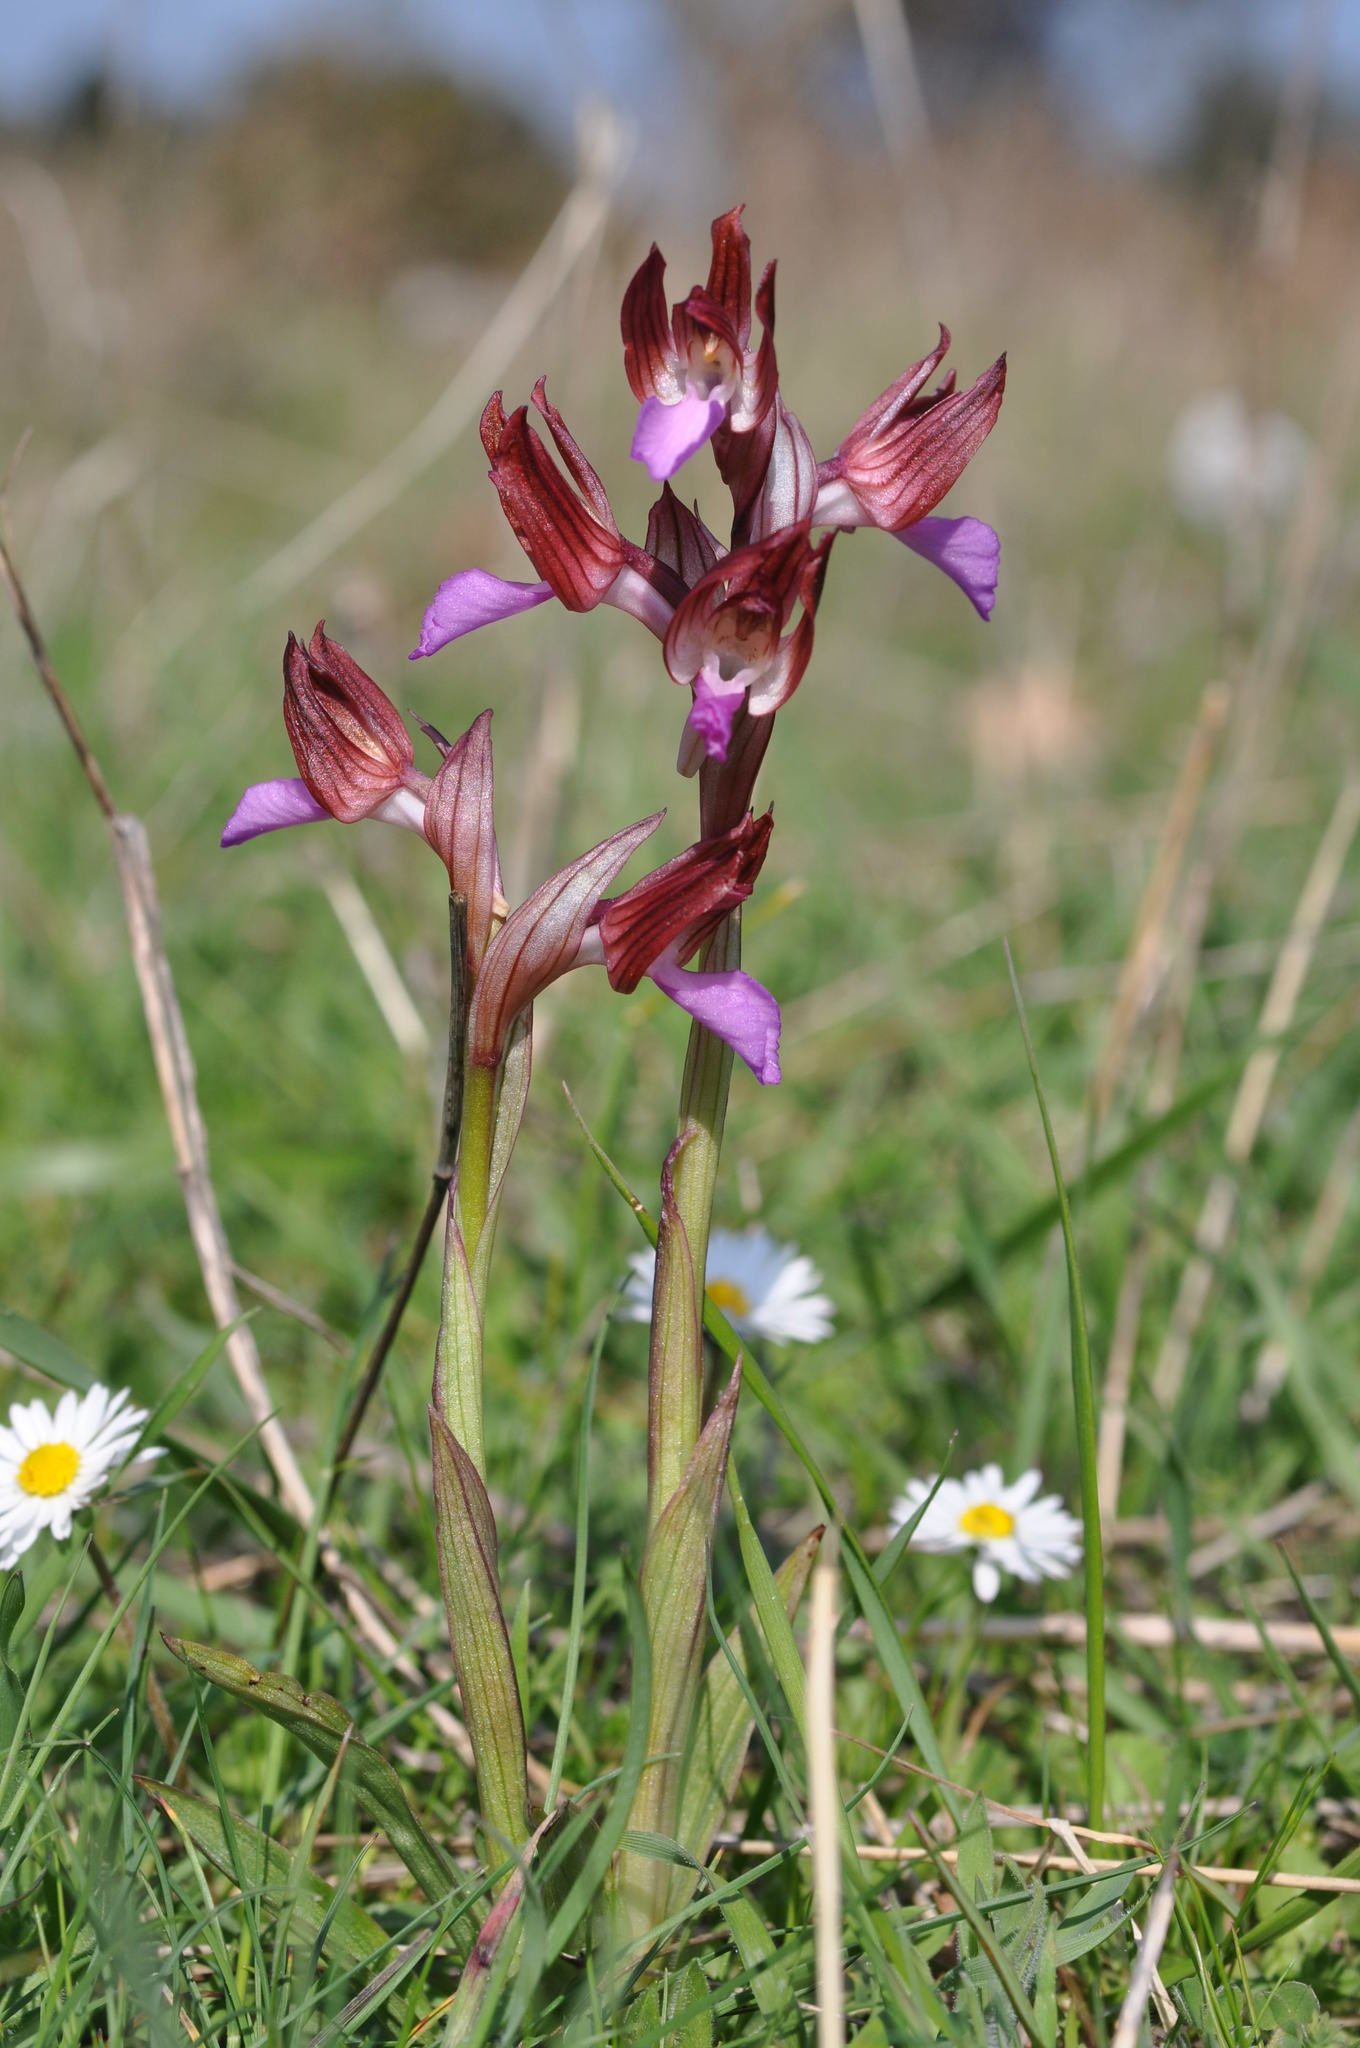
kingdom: Plantae
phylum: Tracheophyta
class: Liliopsida
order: Asparagales
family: Orchidaceae
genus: Anacamptis
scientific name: Anacamptis papilionacea
